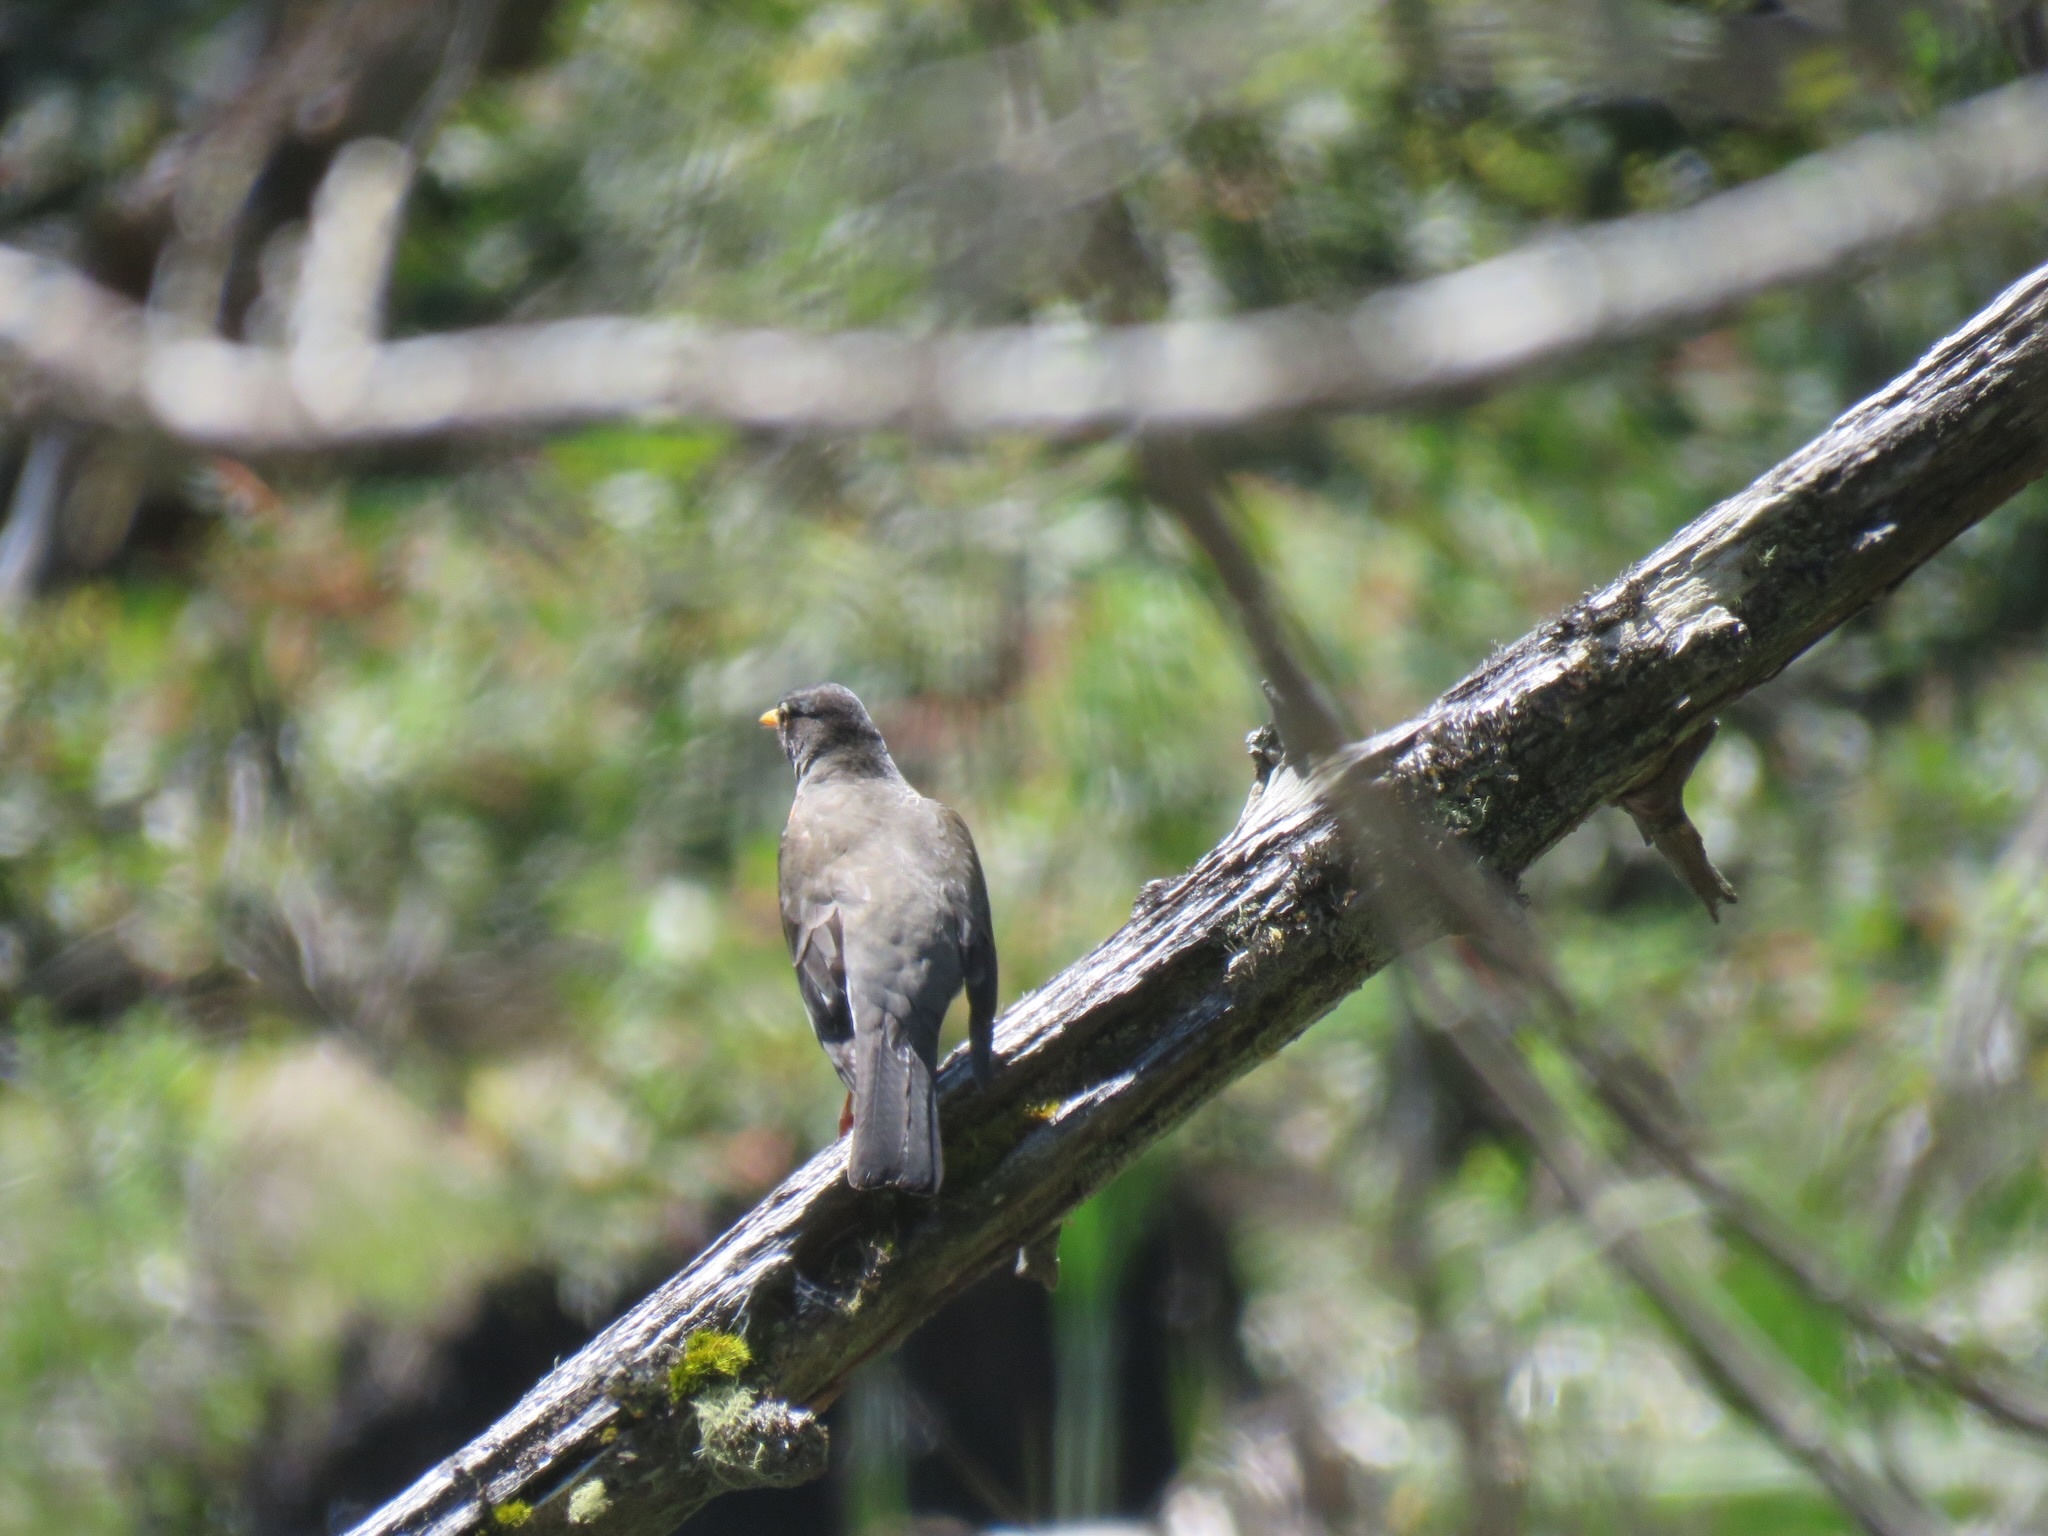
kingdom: Animalia
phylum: Chordata
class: Aves
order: Passeriformes
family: Turdidae
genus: Turdus
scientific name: Turdus migratorius
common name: American robin
